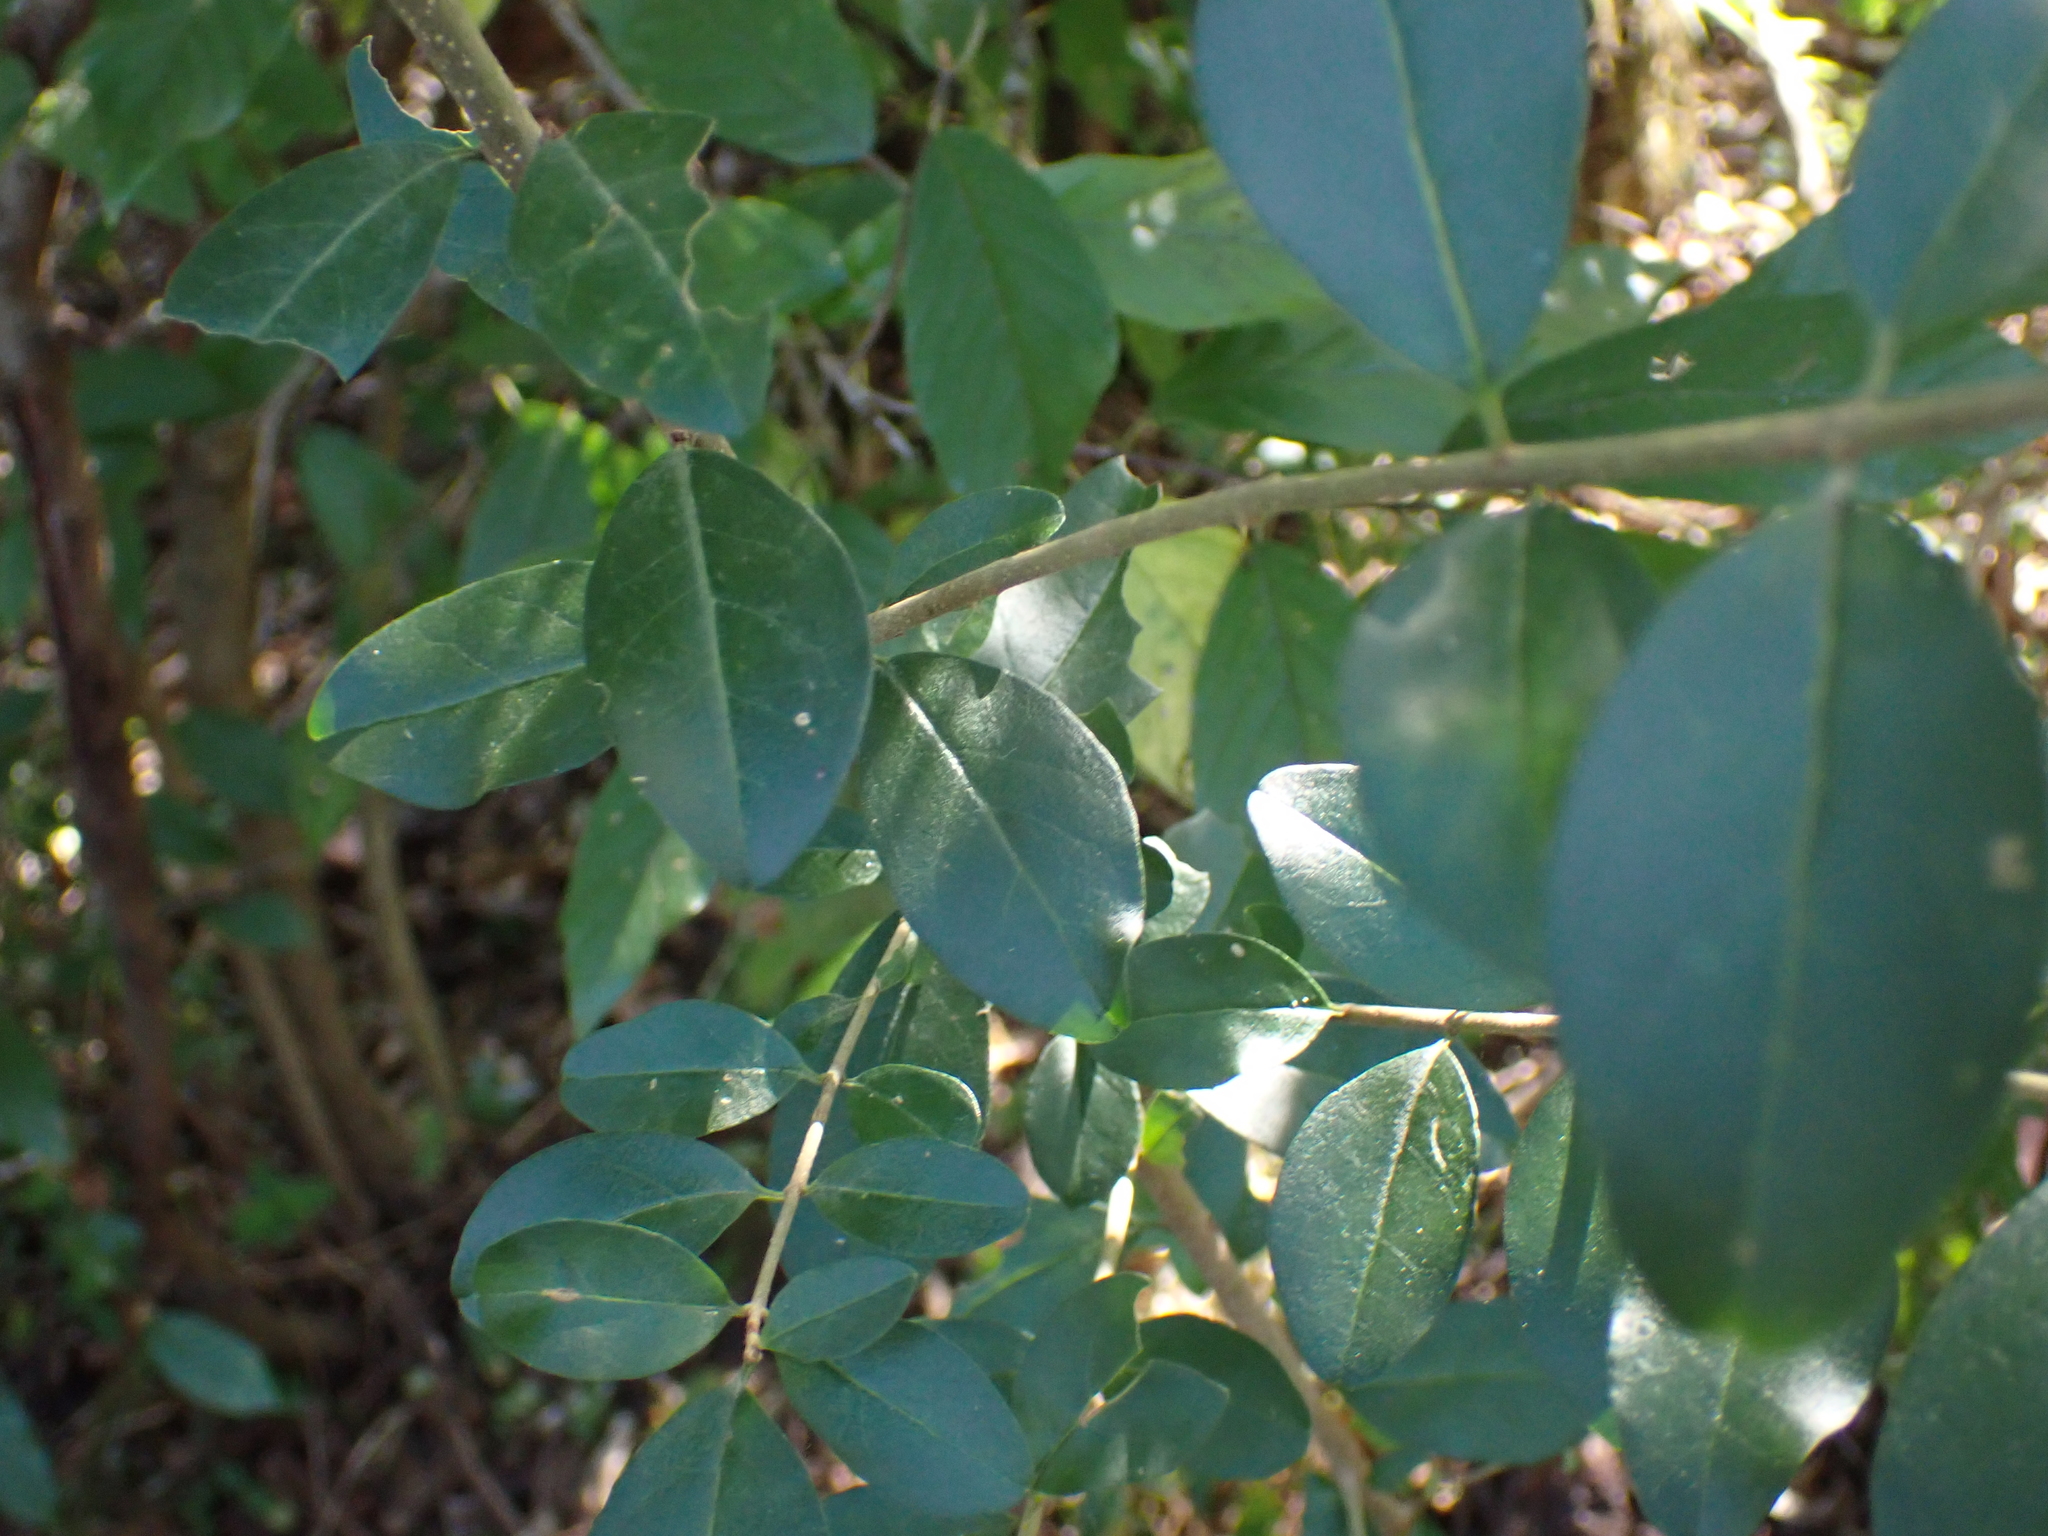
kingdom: Plantae
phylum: Tracheophyta
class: Magnoliopsida
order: Lamiales
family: Oleaceae
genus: Ligustrum
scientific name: Ligustrum sinense
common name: Chinese privet
